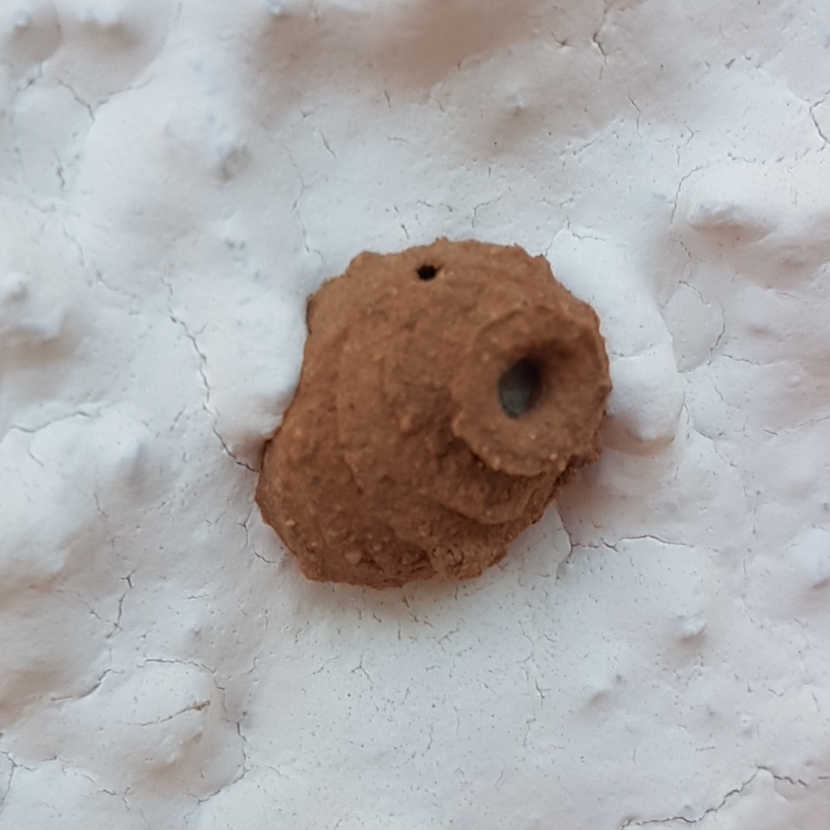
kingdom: Animalia
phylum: Arthropoda
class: Insecta
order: Hymenoptera
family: Eumenidae
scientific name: Eumenidae
